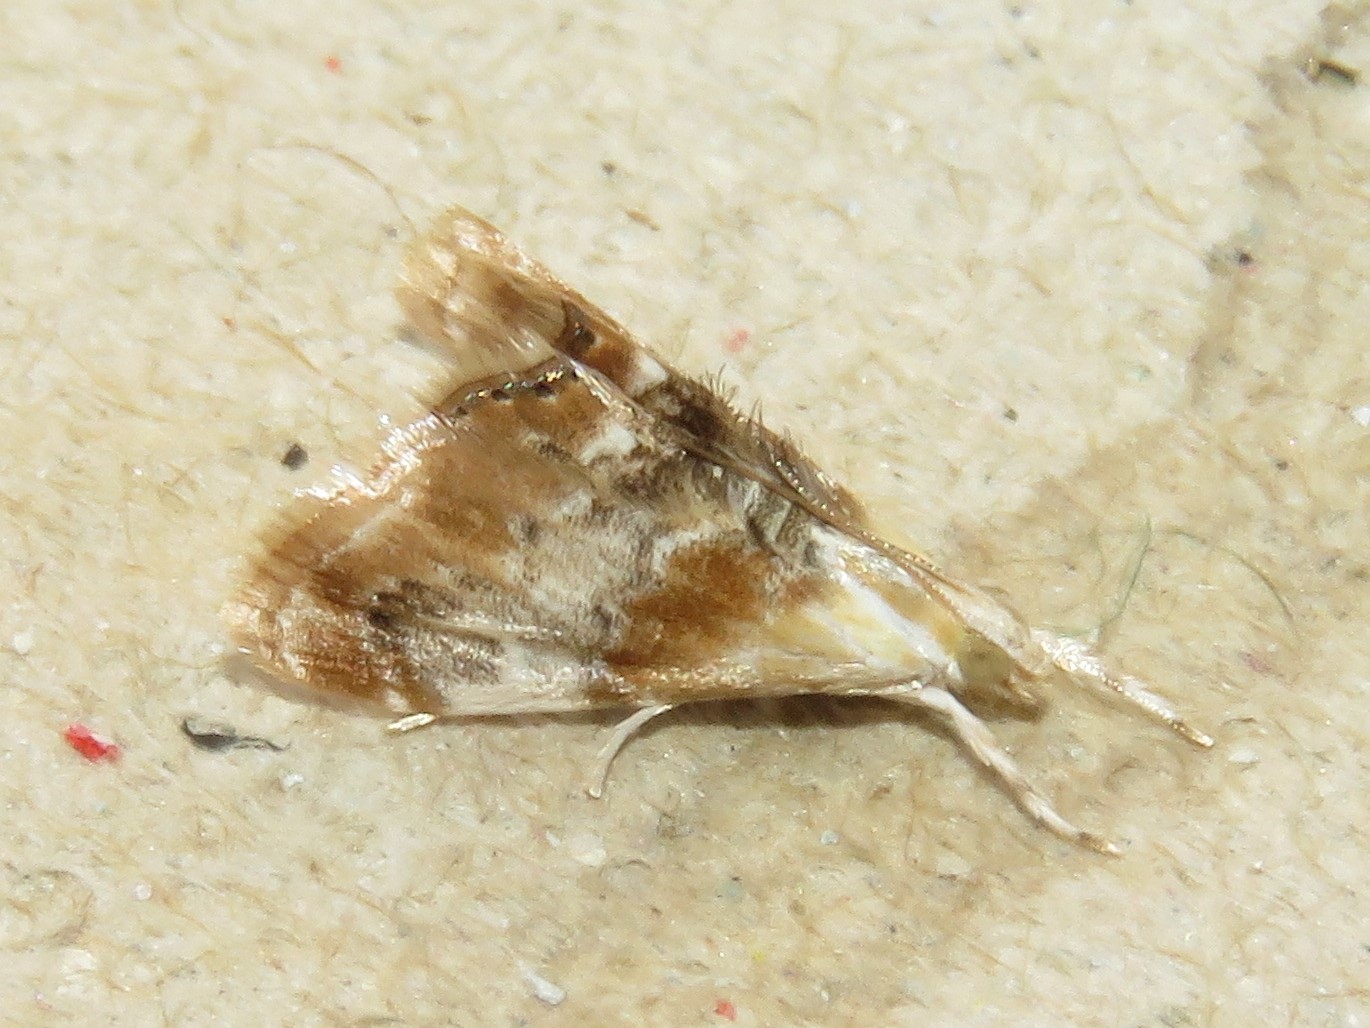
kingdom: Animalia
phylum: Arthropoda
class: Insecta
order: Lepidoptera
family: Crambidae
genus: Dicymolomia
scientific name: Dicymolomia julianalis
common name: Julia's dicymolomia moth
